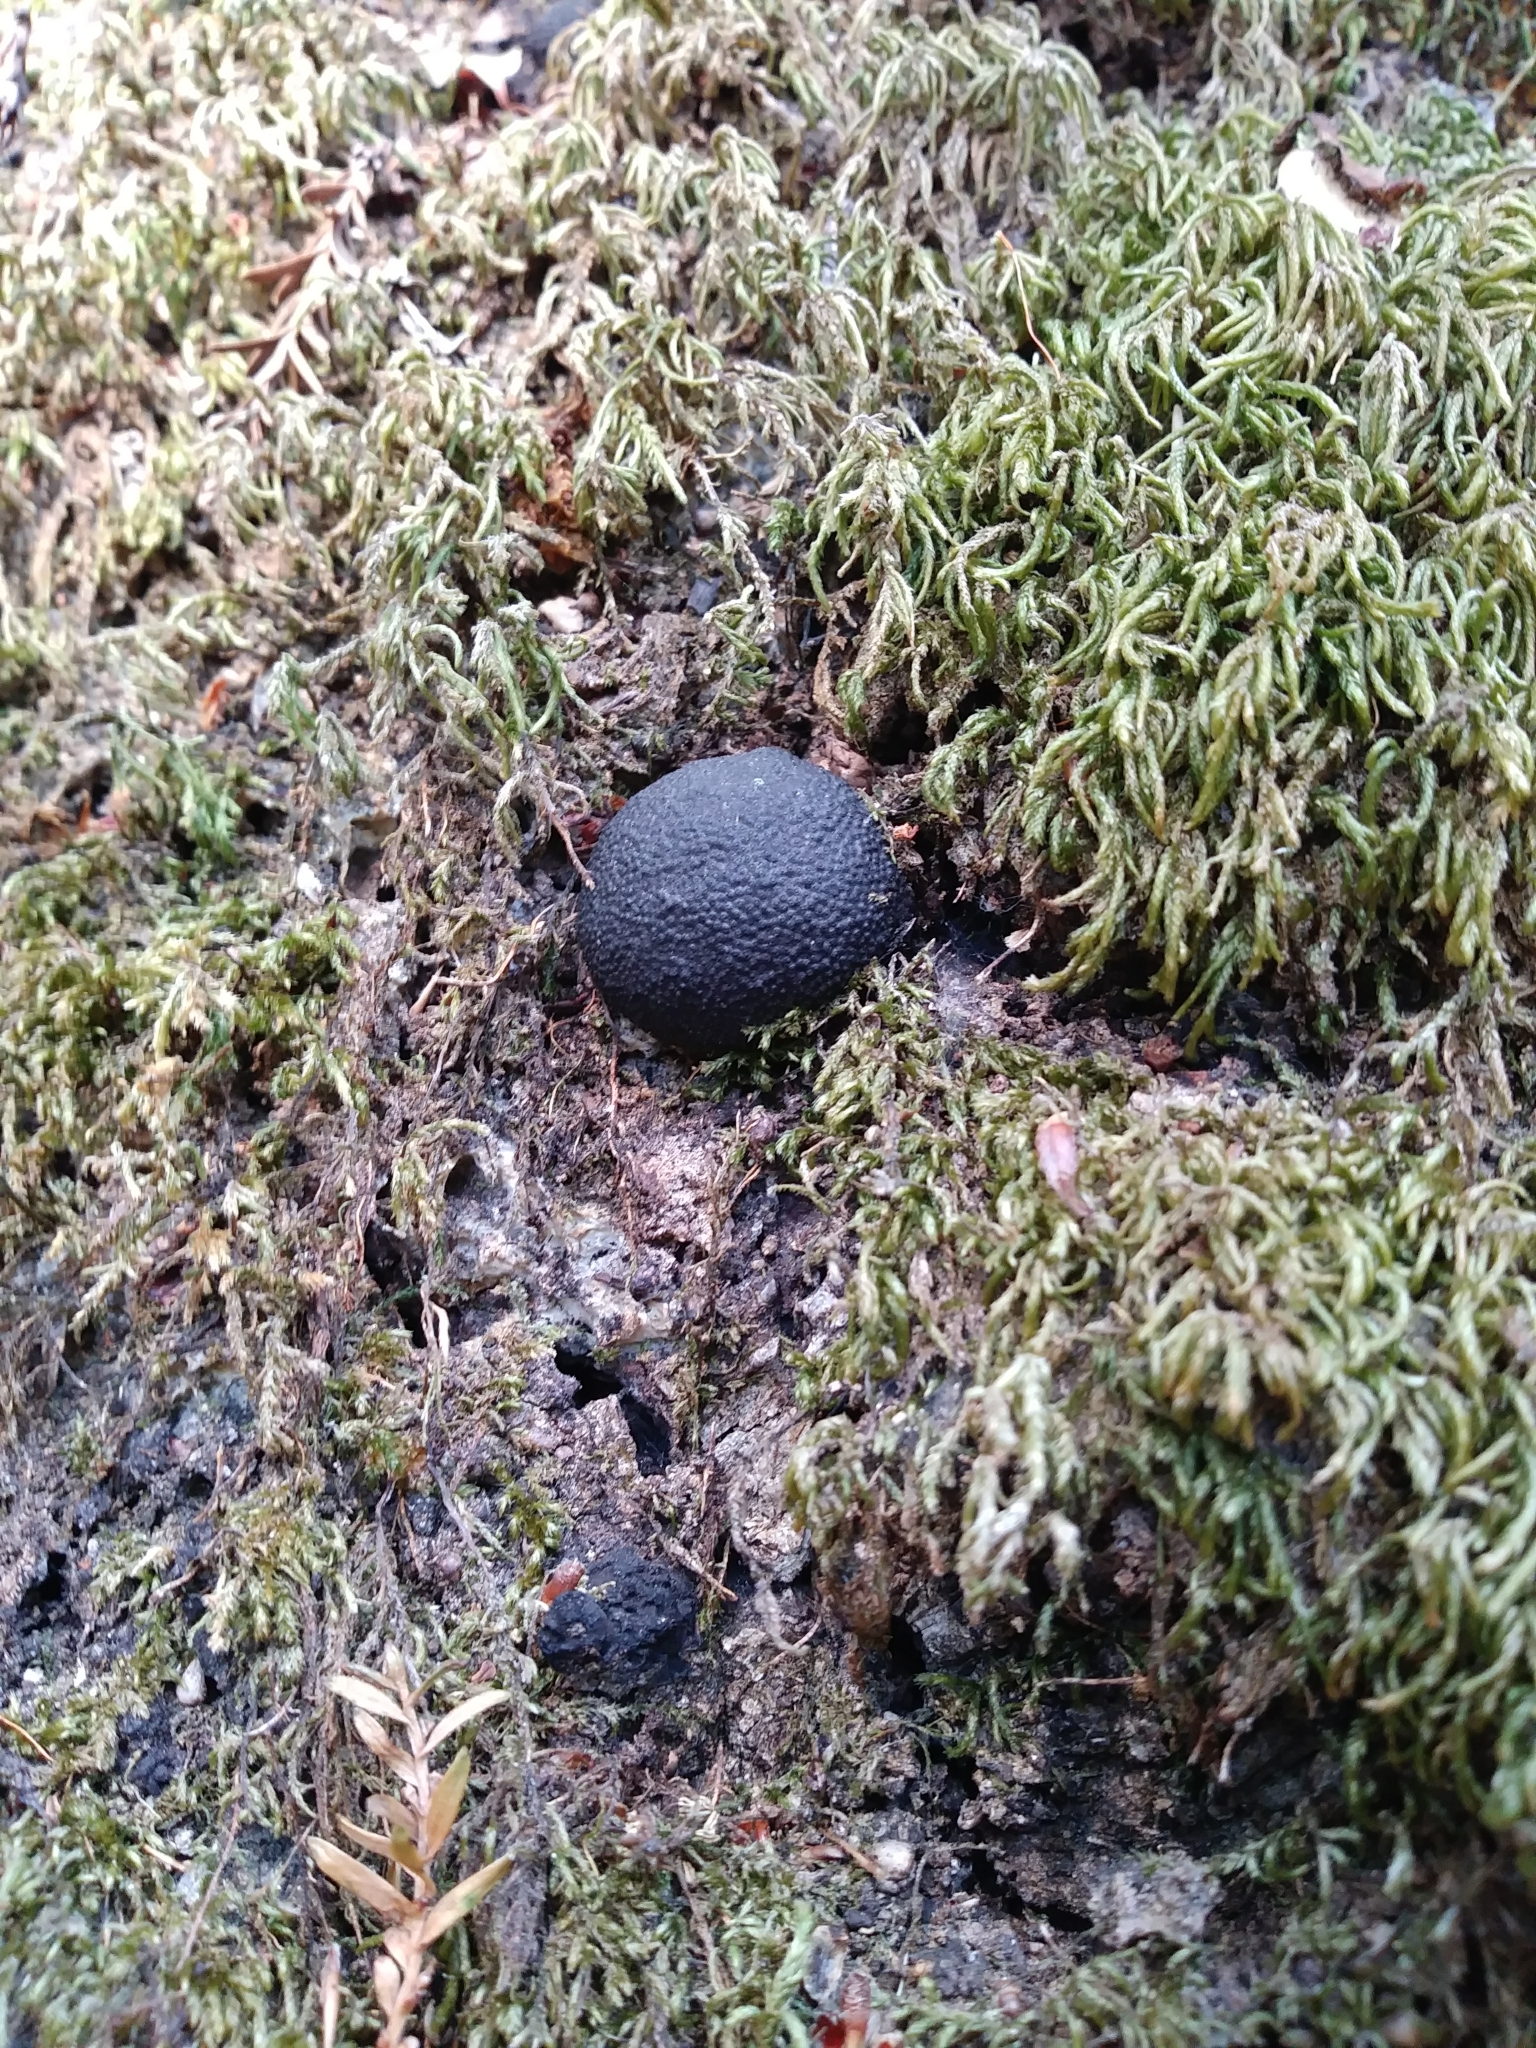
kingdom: Fungi
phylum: Ascomycota
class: Sordariomycetes
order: Xylariales
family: Hypoxylaceae
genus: Annulohypoxylon
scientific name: Annulohypoxylon thouarsianum
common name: Cramp balls
